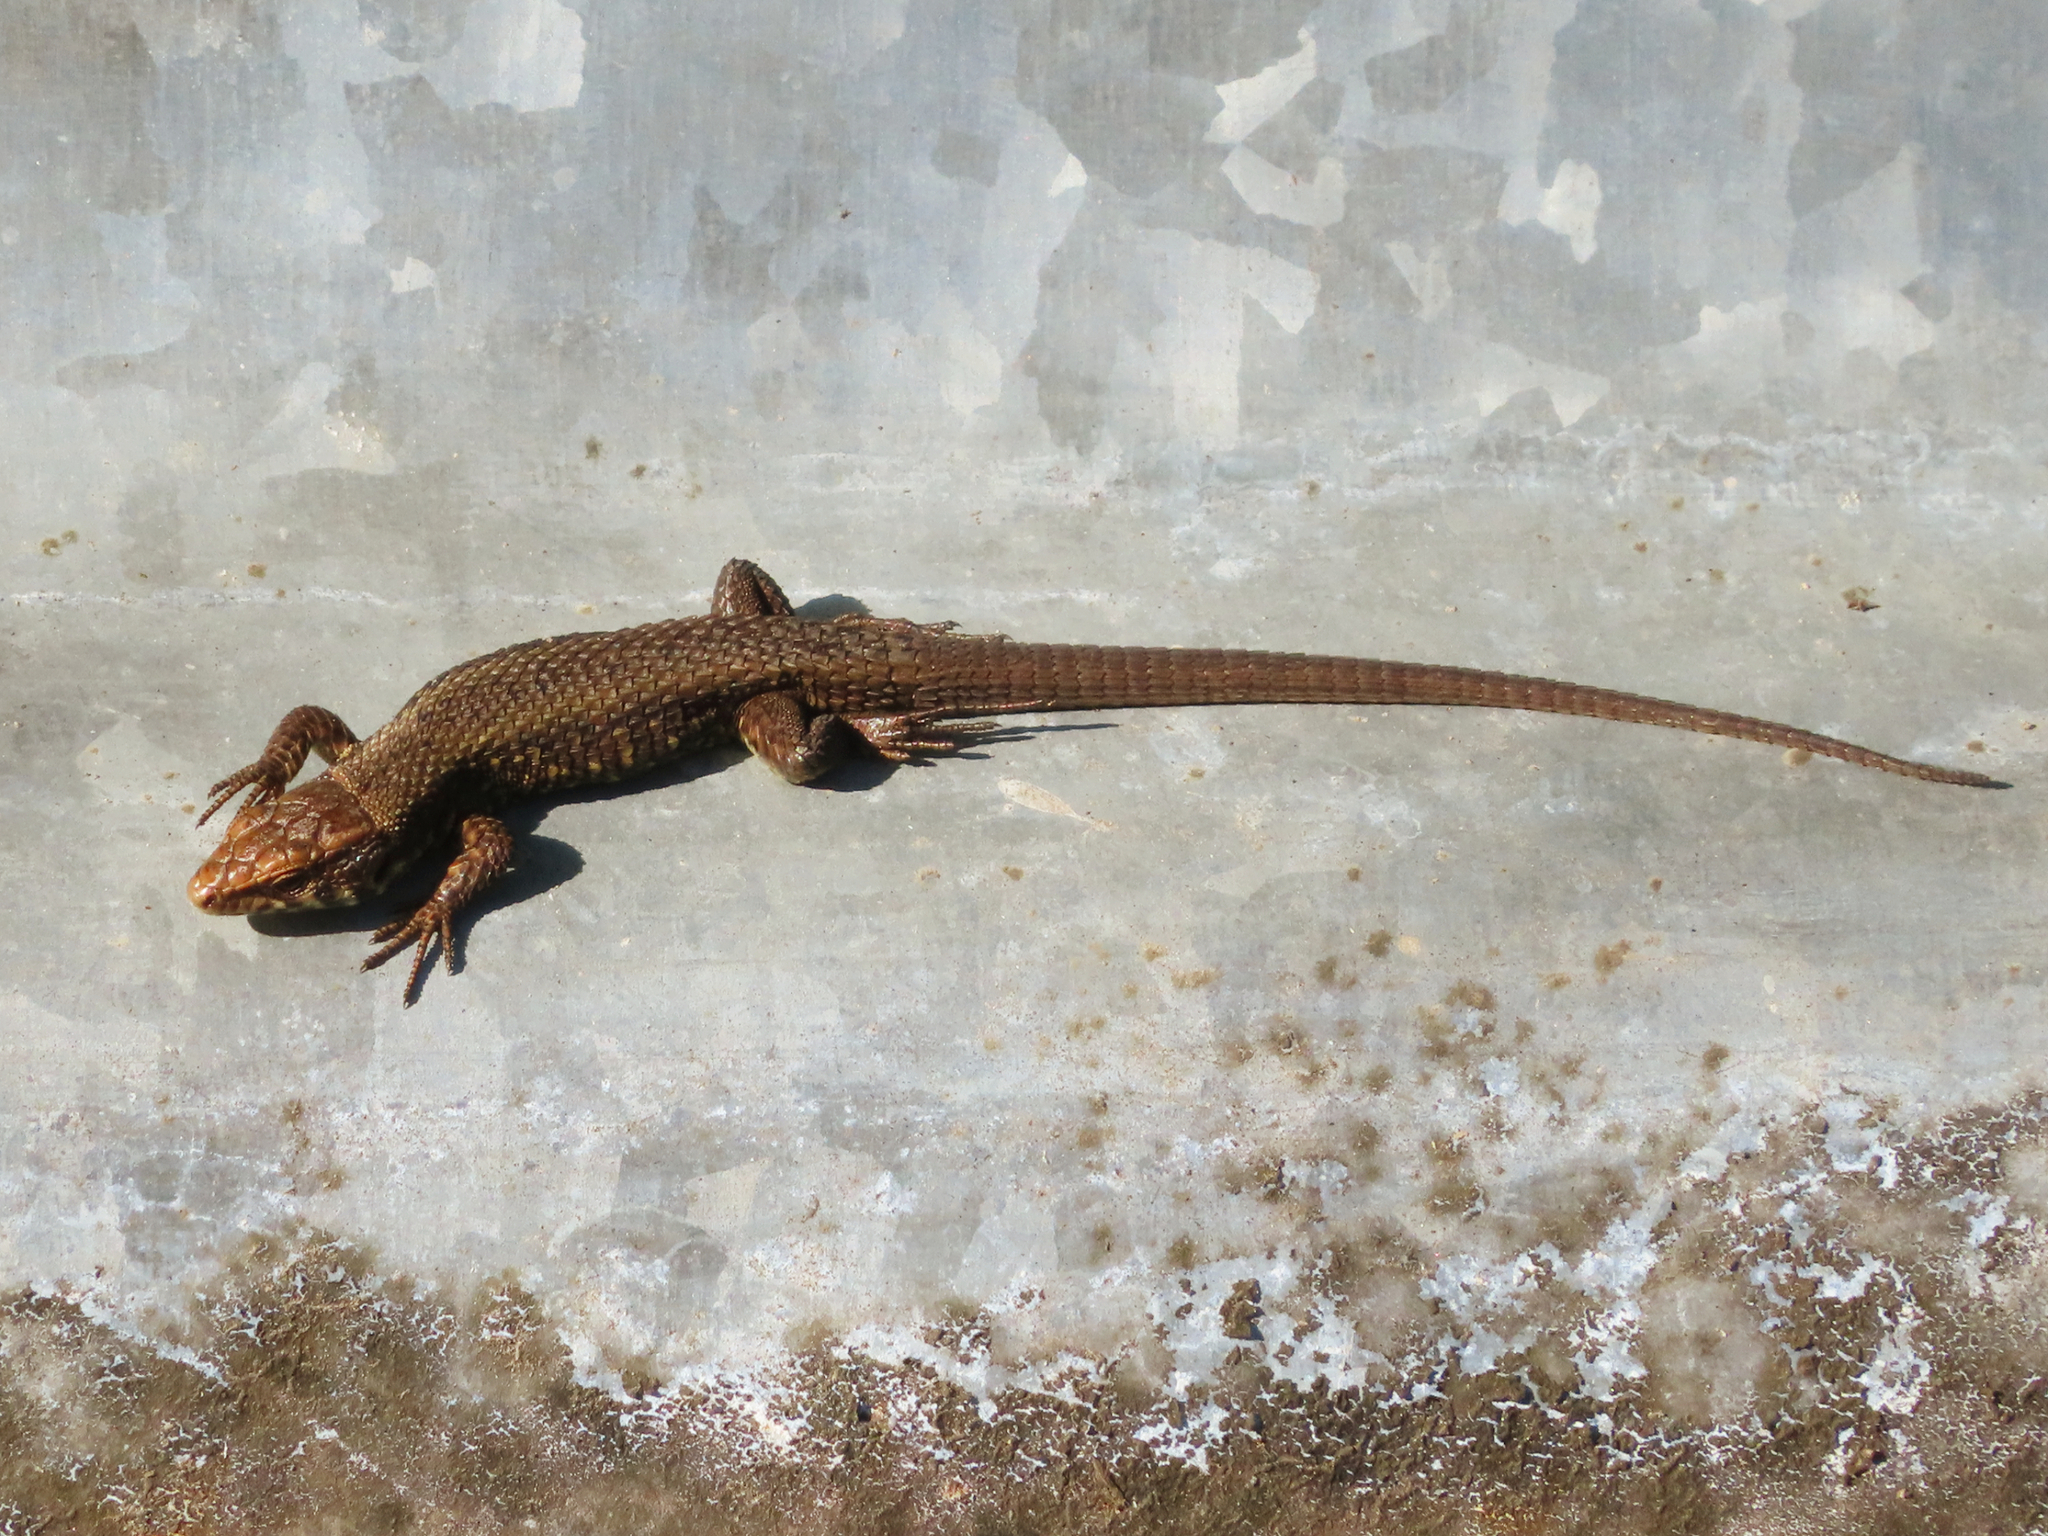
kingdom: Animalia
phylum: Chordata
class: Squamata
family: Lacertidae
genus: Algyroides
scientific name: Algyroides moreoticus
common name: Greek algyroides
